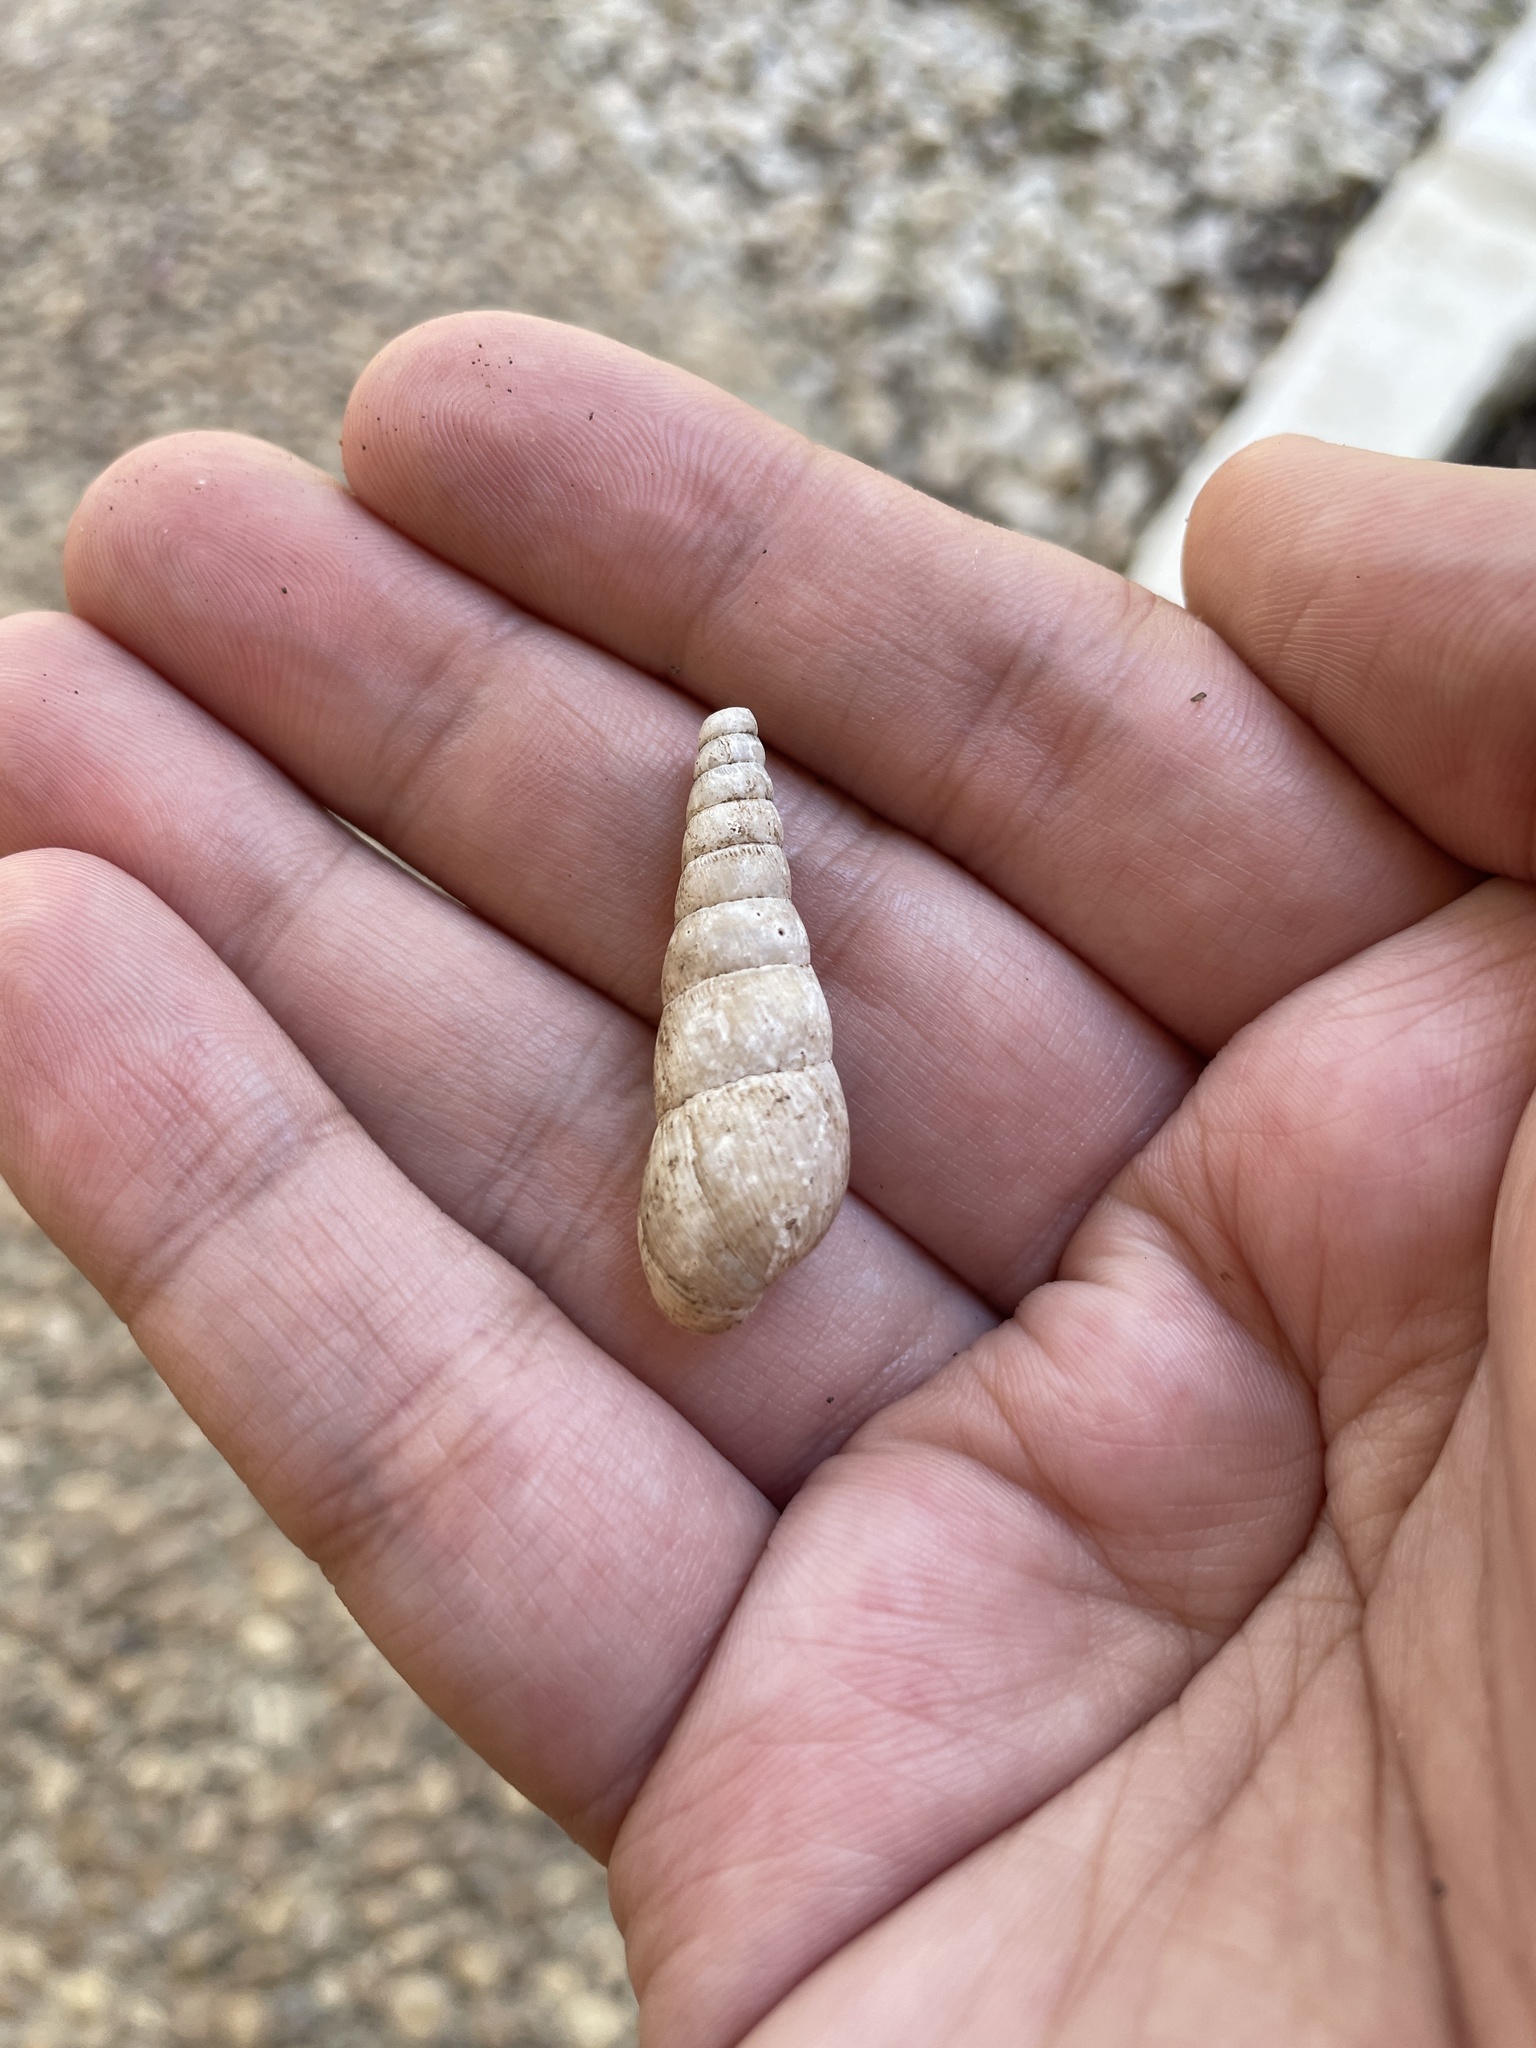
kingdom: Animalia
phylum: Mollusca
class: Gastropoda
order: Stylommatophora
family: Achatinidae
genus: Rumina
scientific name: Rumina decollata
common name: Decollate snail
